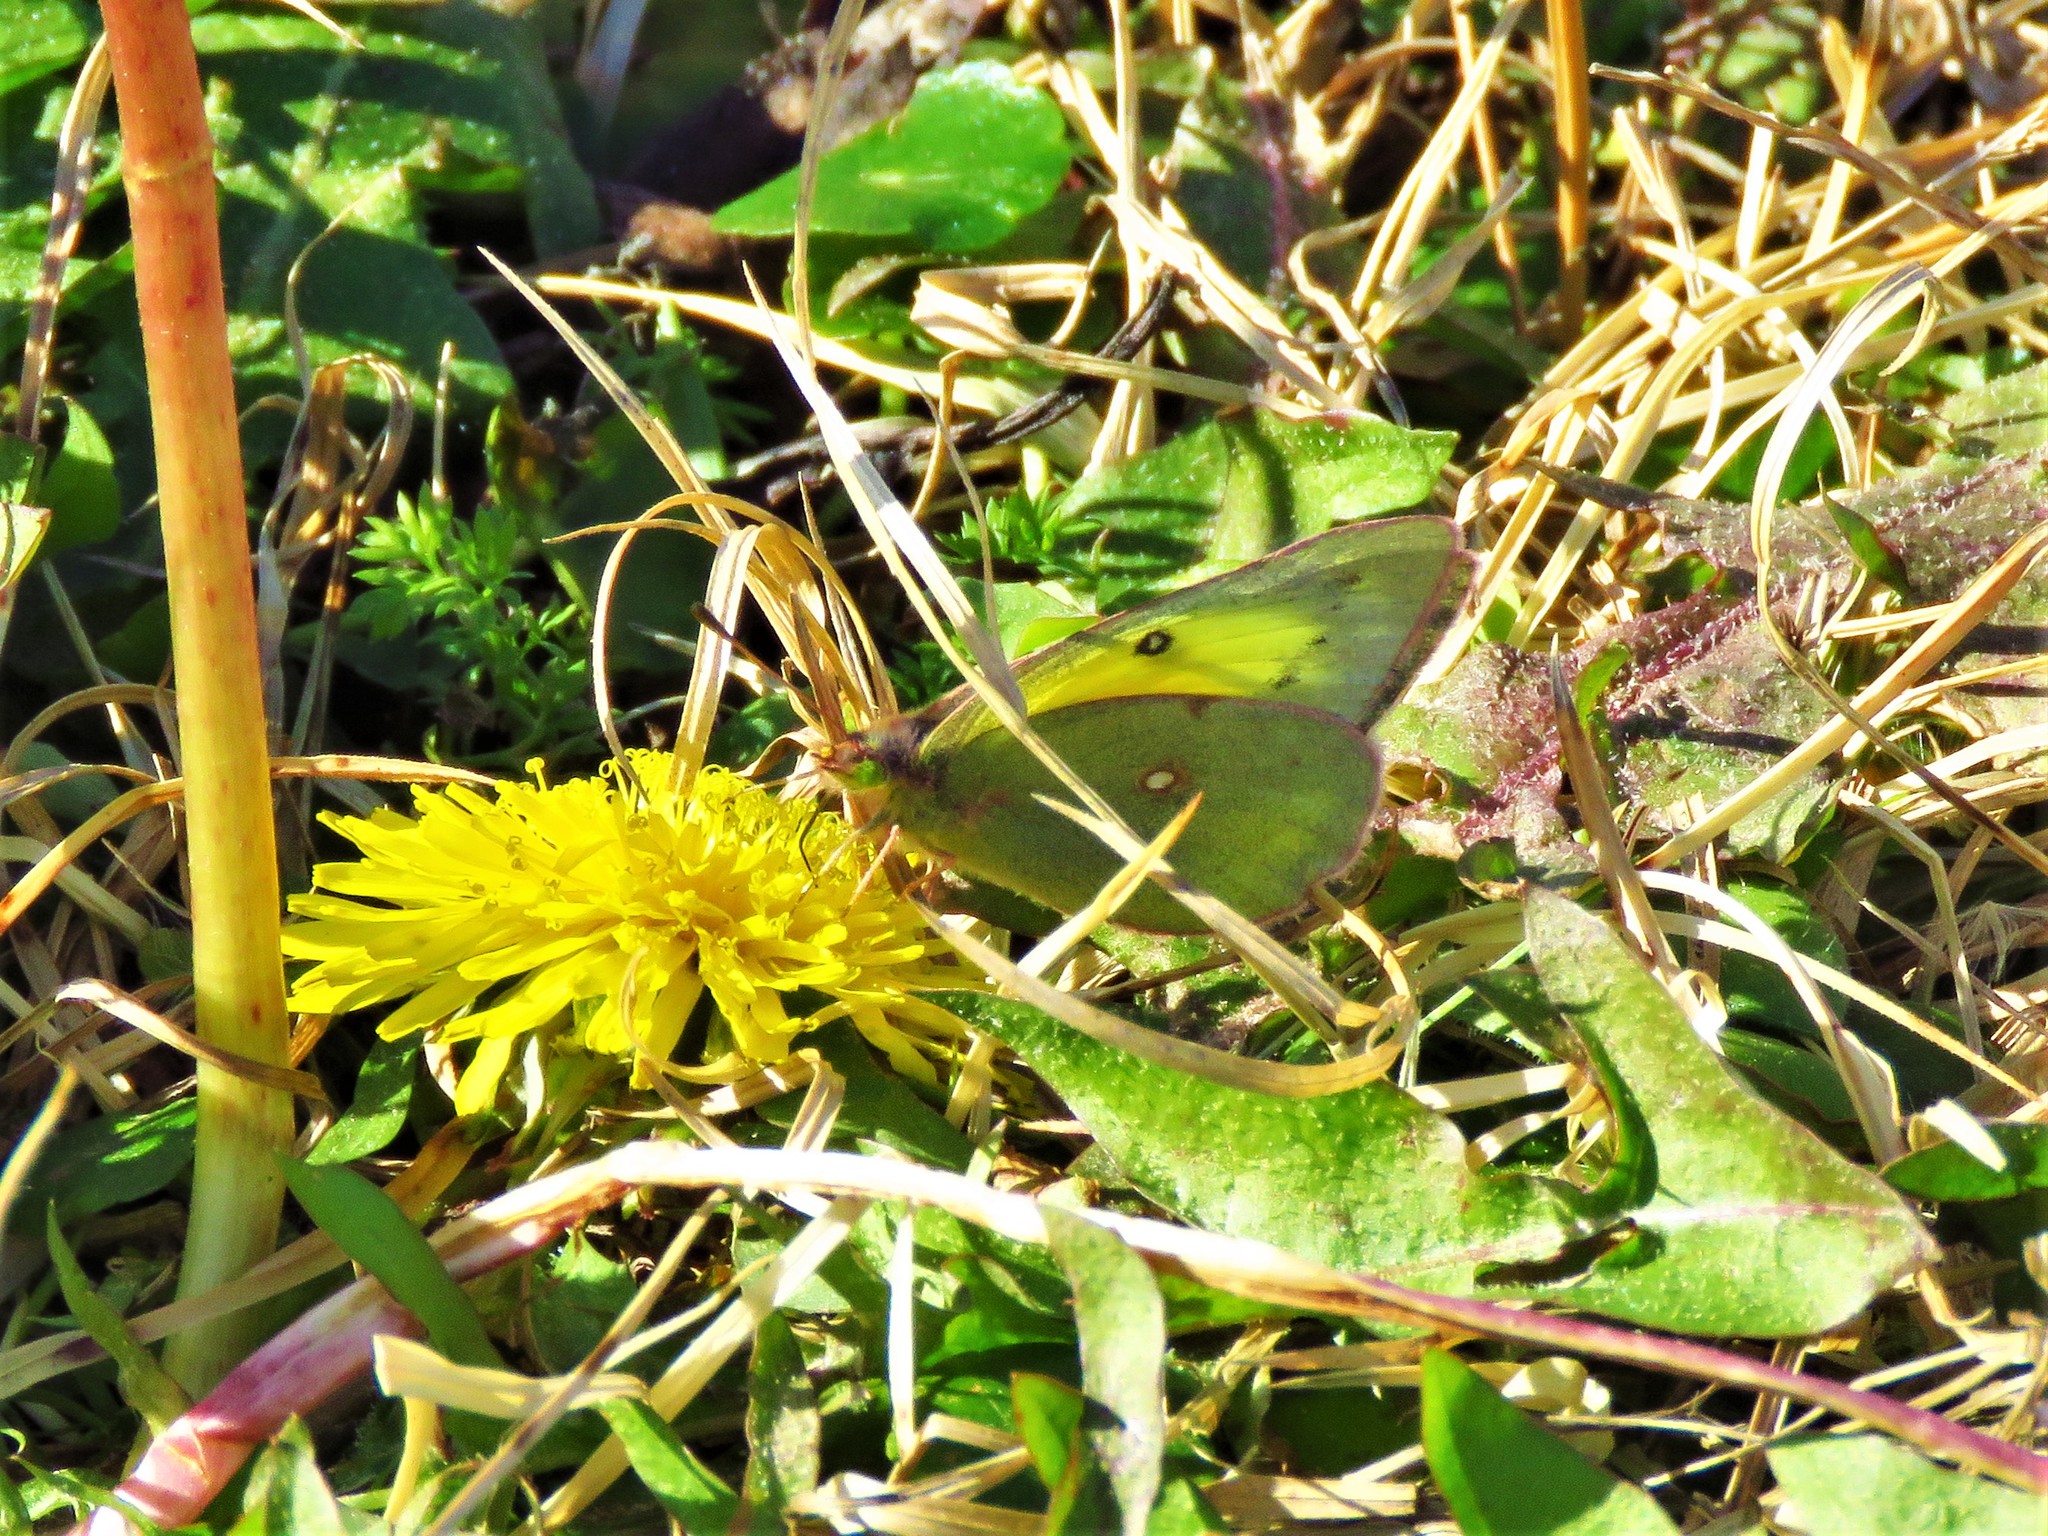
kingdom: Animalia
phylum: Arthropoda
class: Insecta
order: Lepidoptera
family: Pieridae
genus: Colias
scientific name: Colias eurytheme
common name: Alfalfa butterfly
